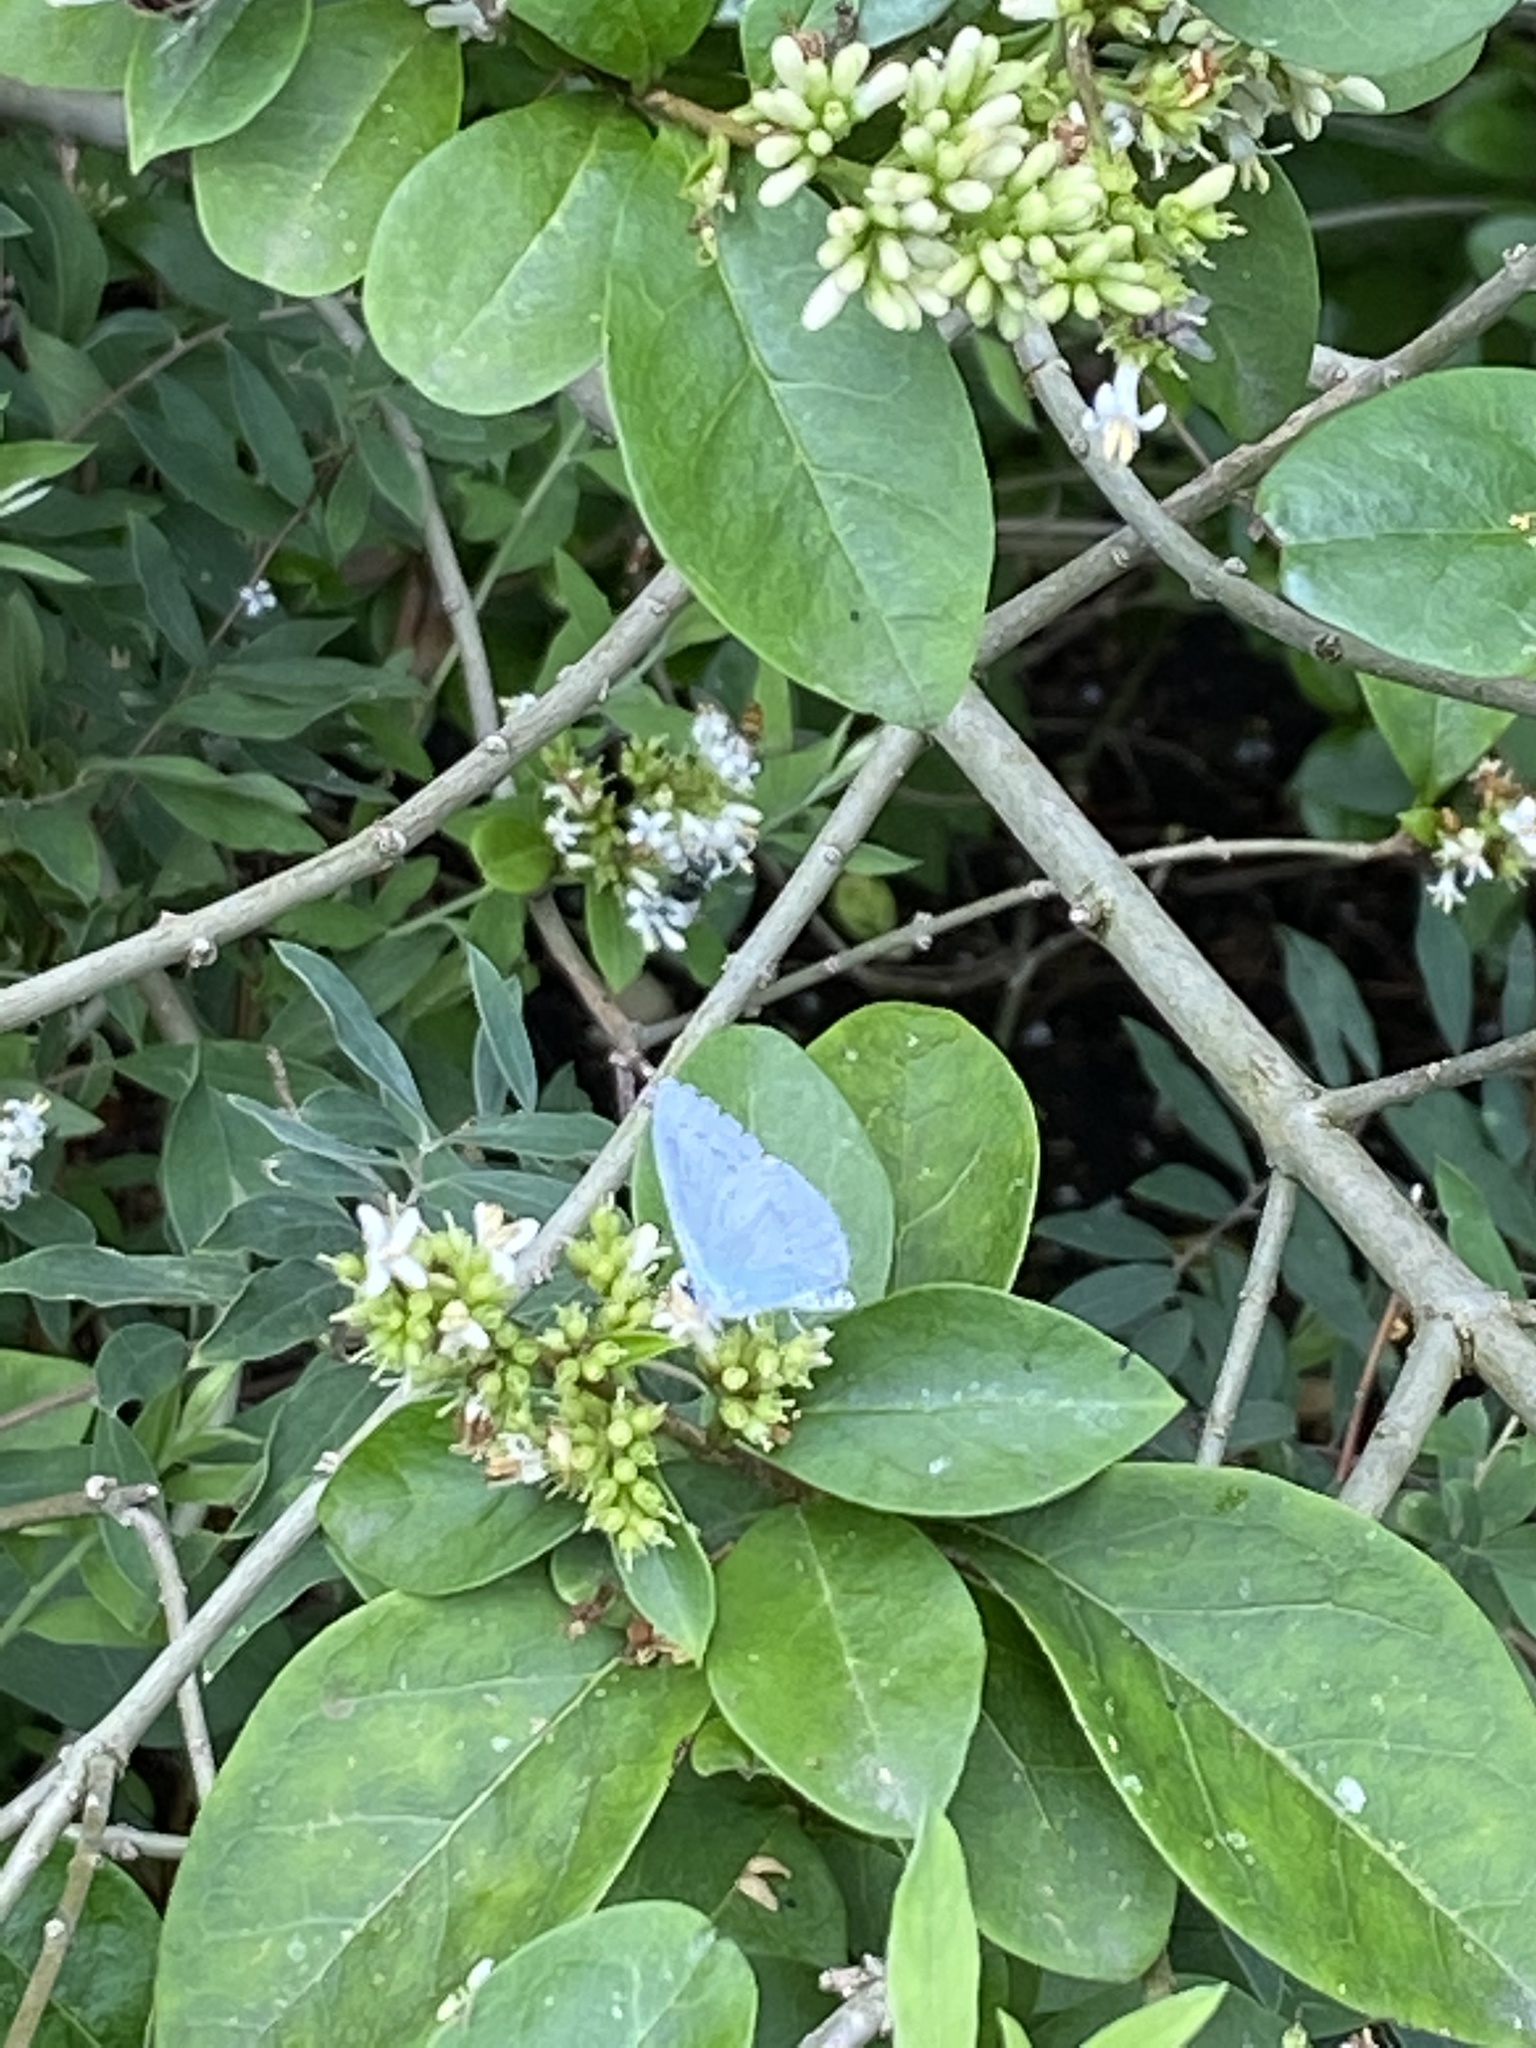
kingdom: Animalia
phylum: Arthropoda
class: Insecta
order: Lepidoptera
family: Lycaenidae
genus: Celastrina
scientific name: Celastrina argiolus
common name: Holly blue
